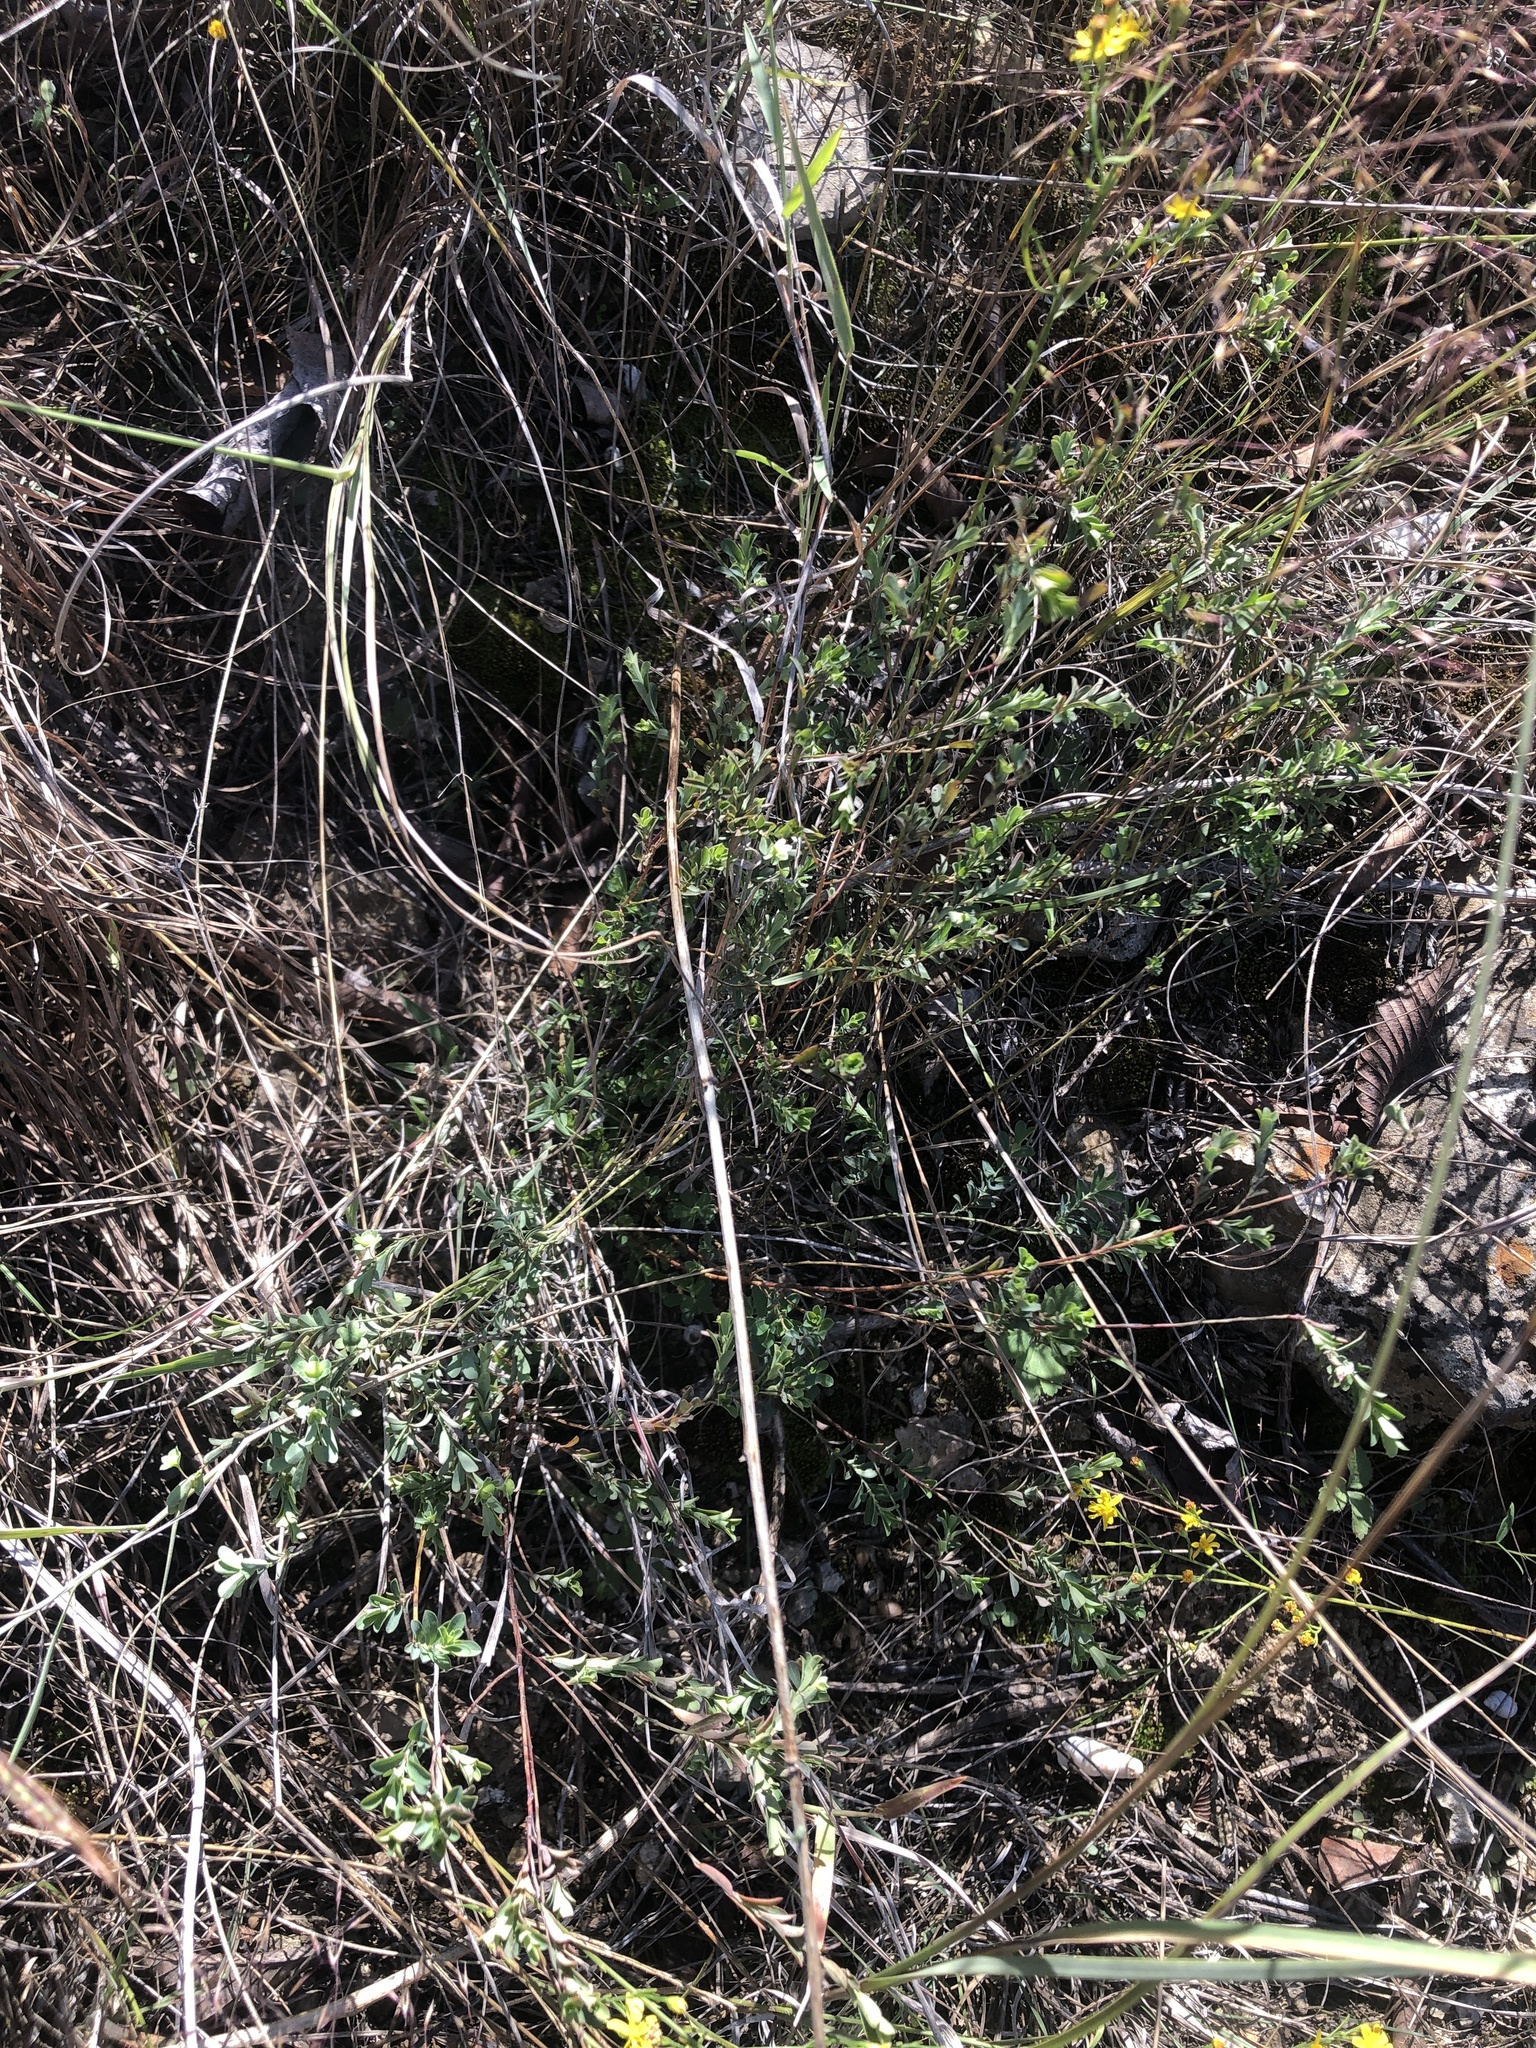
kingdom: Plantae
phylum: Tracheophyta
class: Magnoliopsida
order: Malpighiales
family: Phyllanthaceae
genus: Phyllanthus
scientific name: Phyllanthus polygonoides
